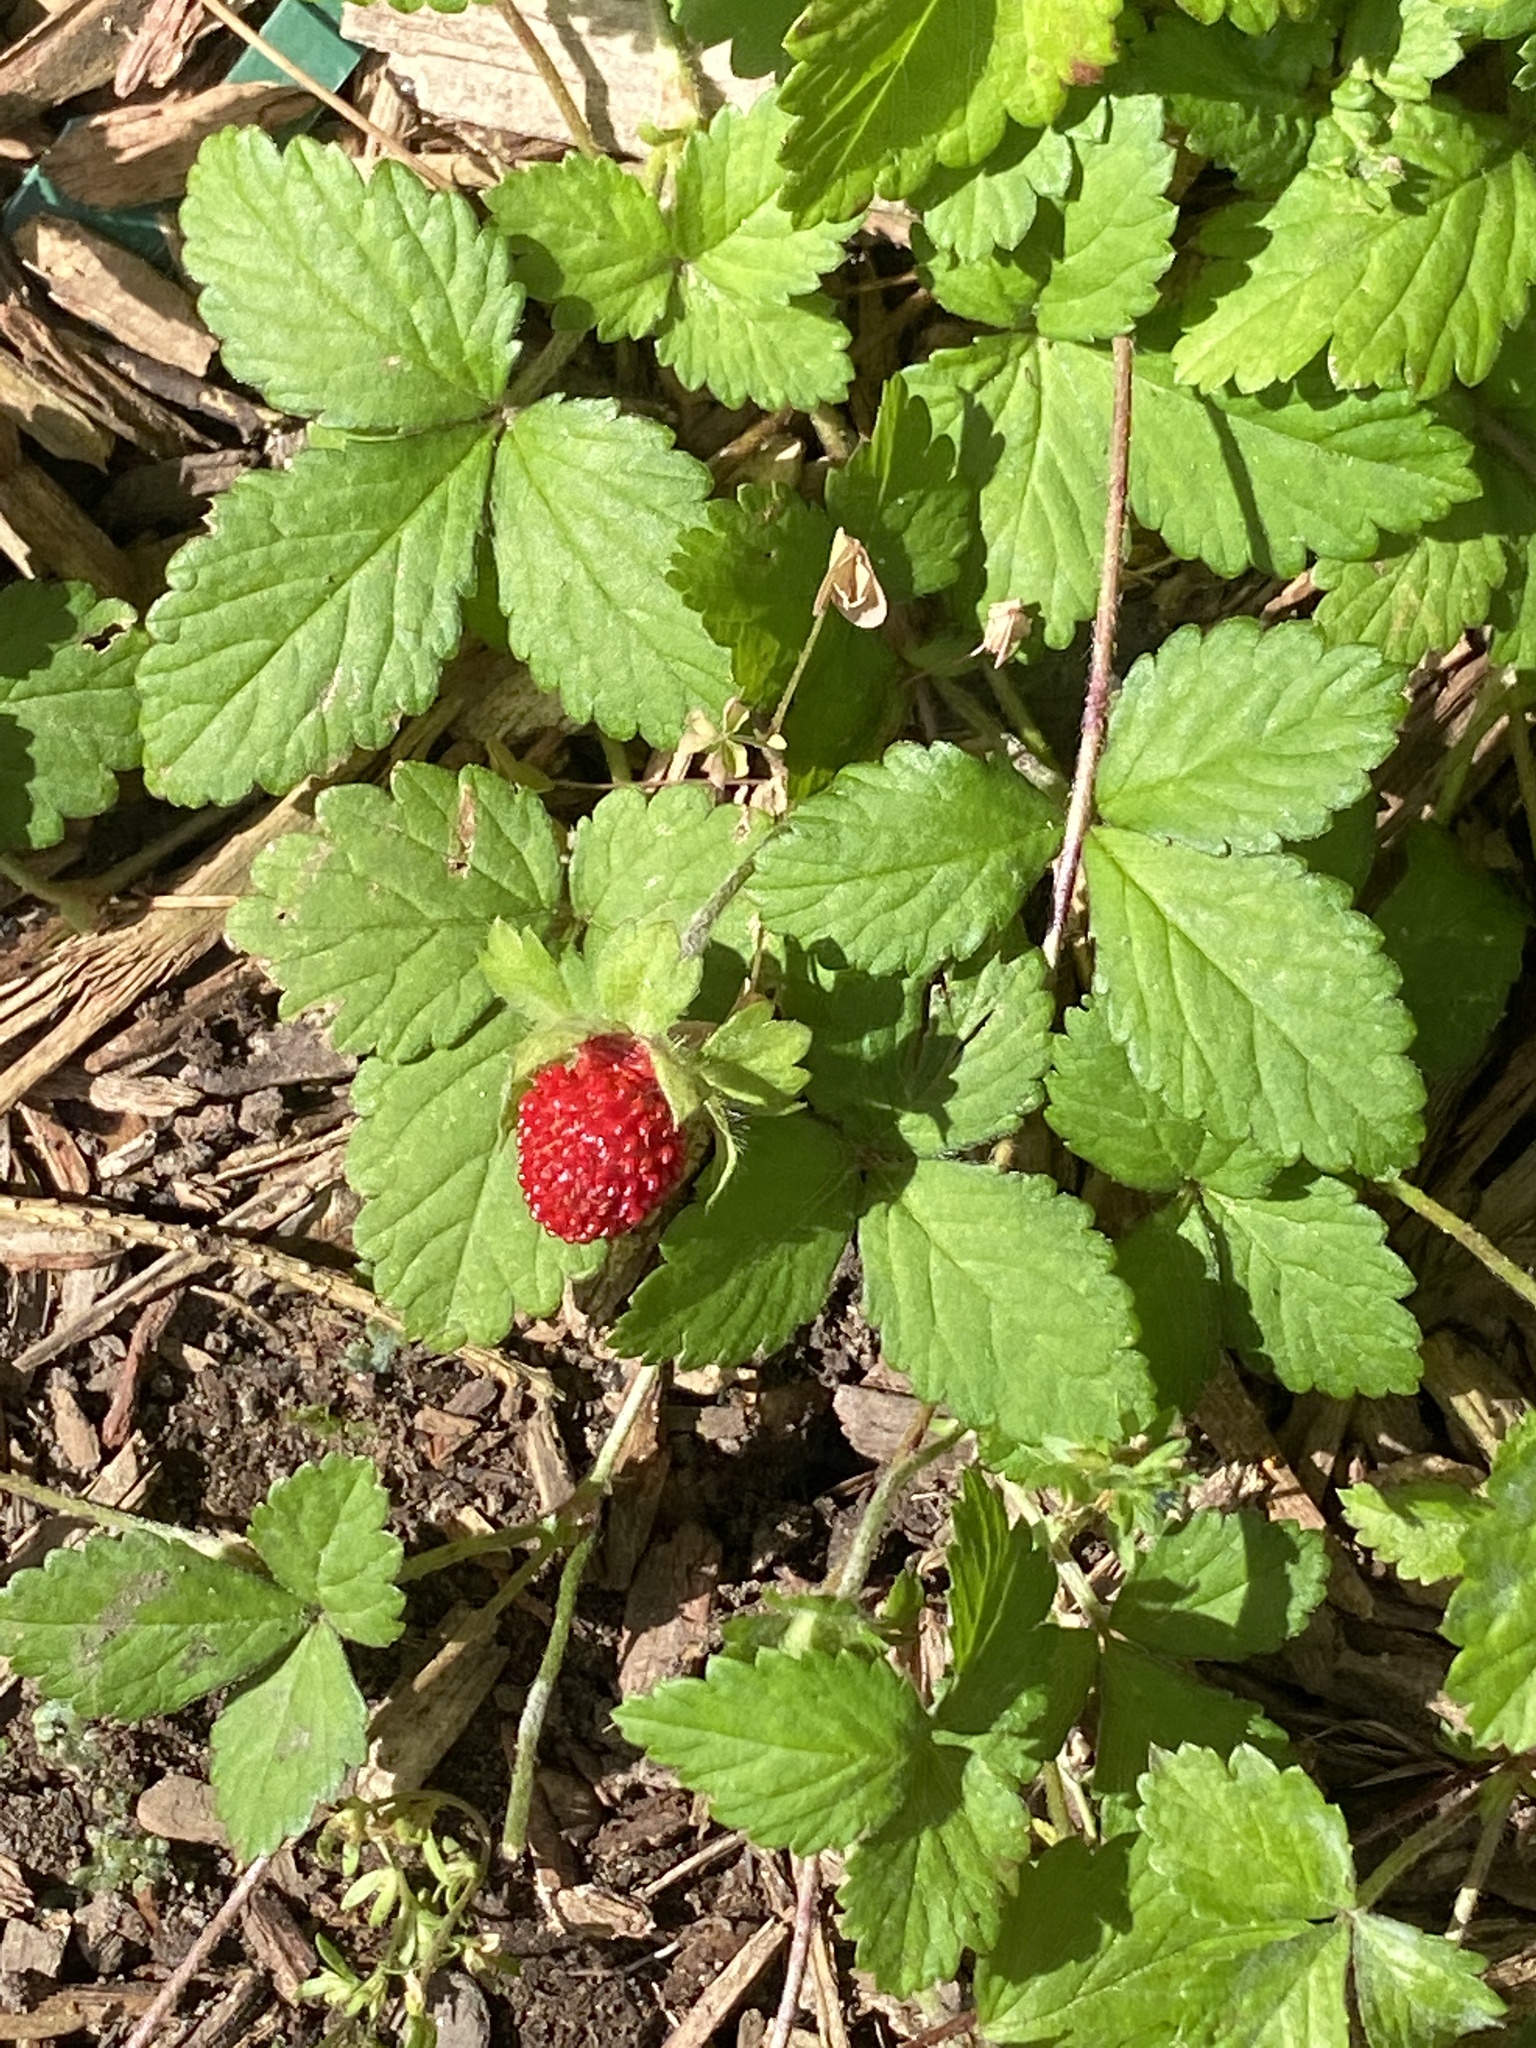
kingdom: Plantae
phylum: Tracheophyta
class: Magnoliopsida
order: Rosales
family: Rosaceae
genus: Potentilla
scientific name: Potentilla indica
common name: Yellow-flowered strawberry
